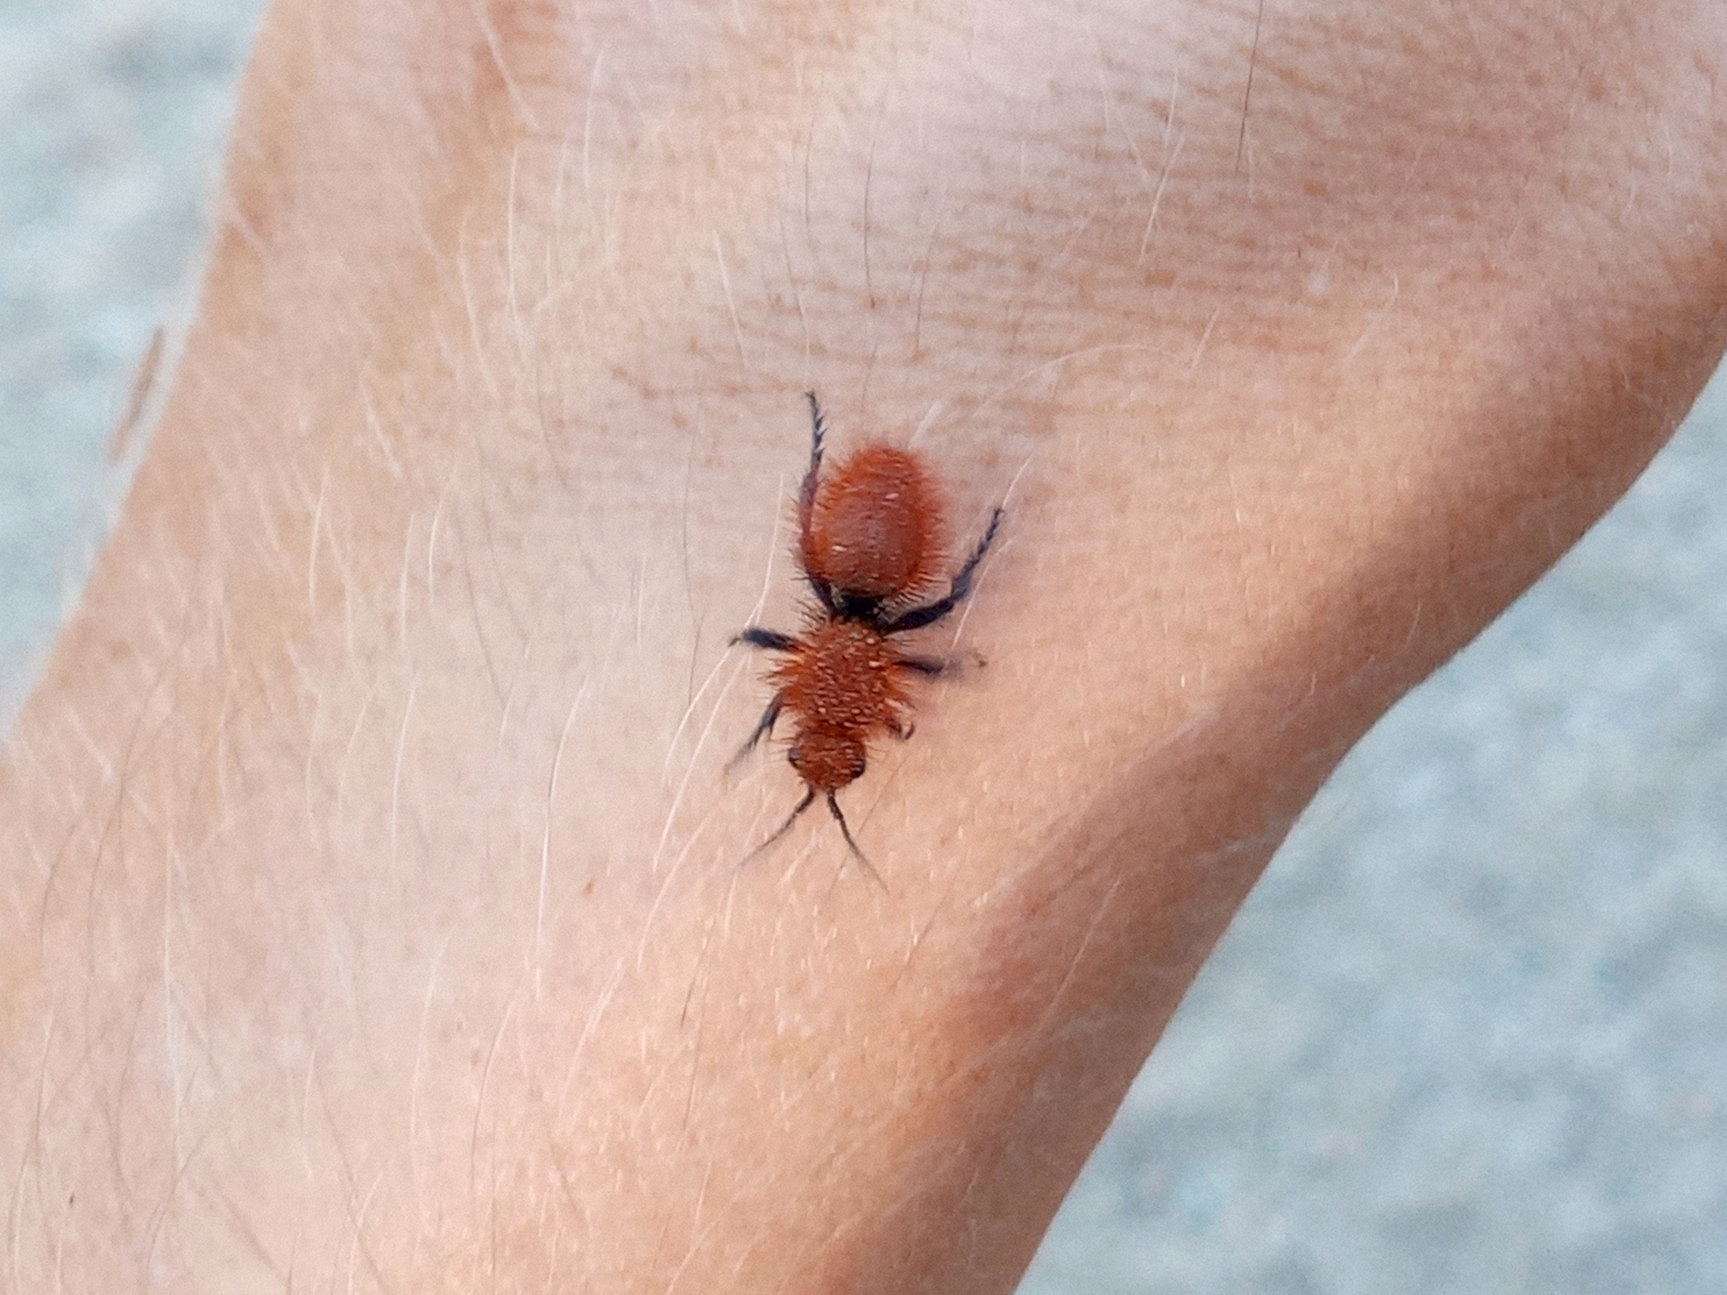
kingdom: Animalia
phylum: Arthropoda
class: Insecta
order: Hymenoptera
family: Mutillidae
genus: Dasymutilla
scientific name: Dasymutilla
